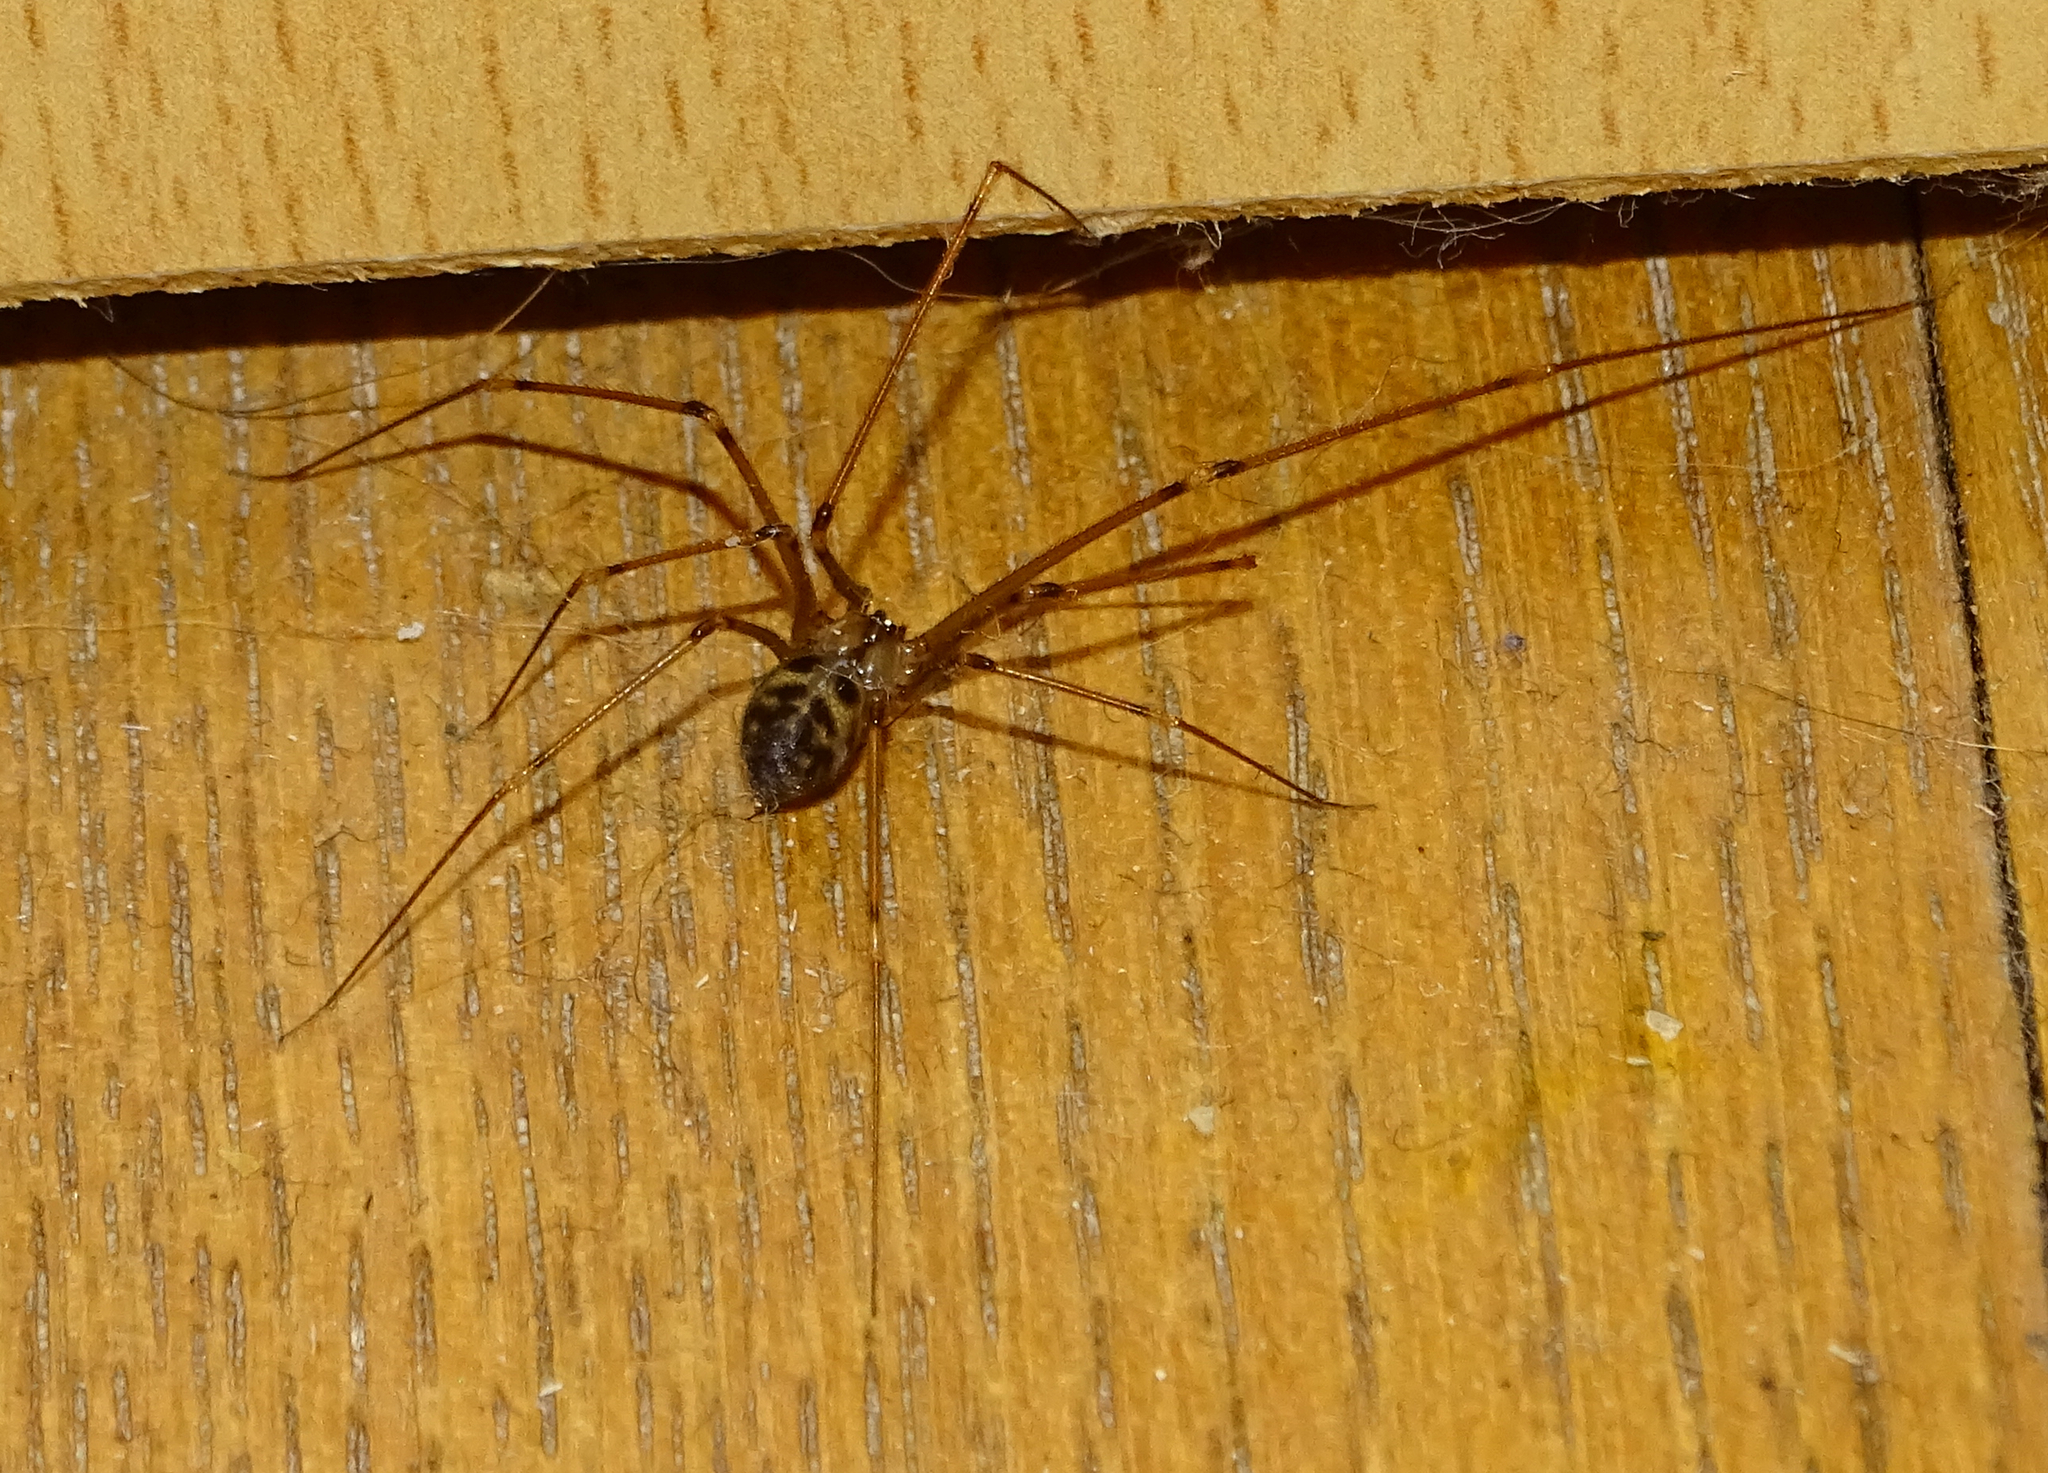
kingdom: Animalia
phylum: Arthropoda
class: Arachnida
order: Araneae
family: Pholcidae
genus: Hoplopholcus
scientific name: Hoplopholcus forskali
